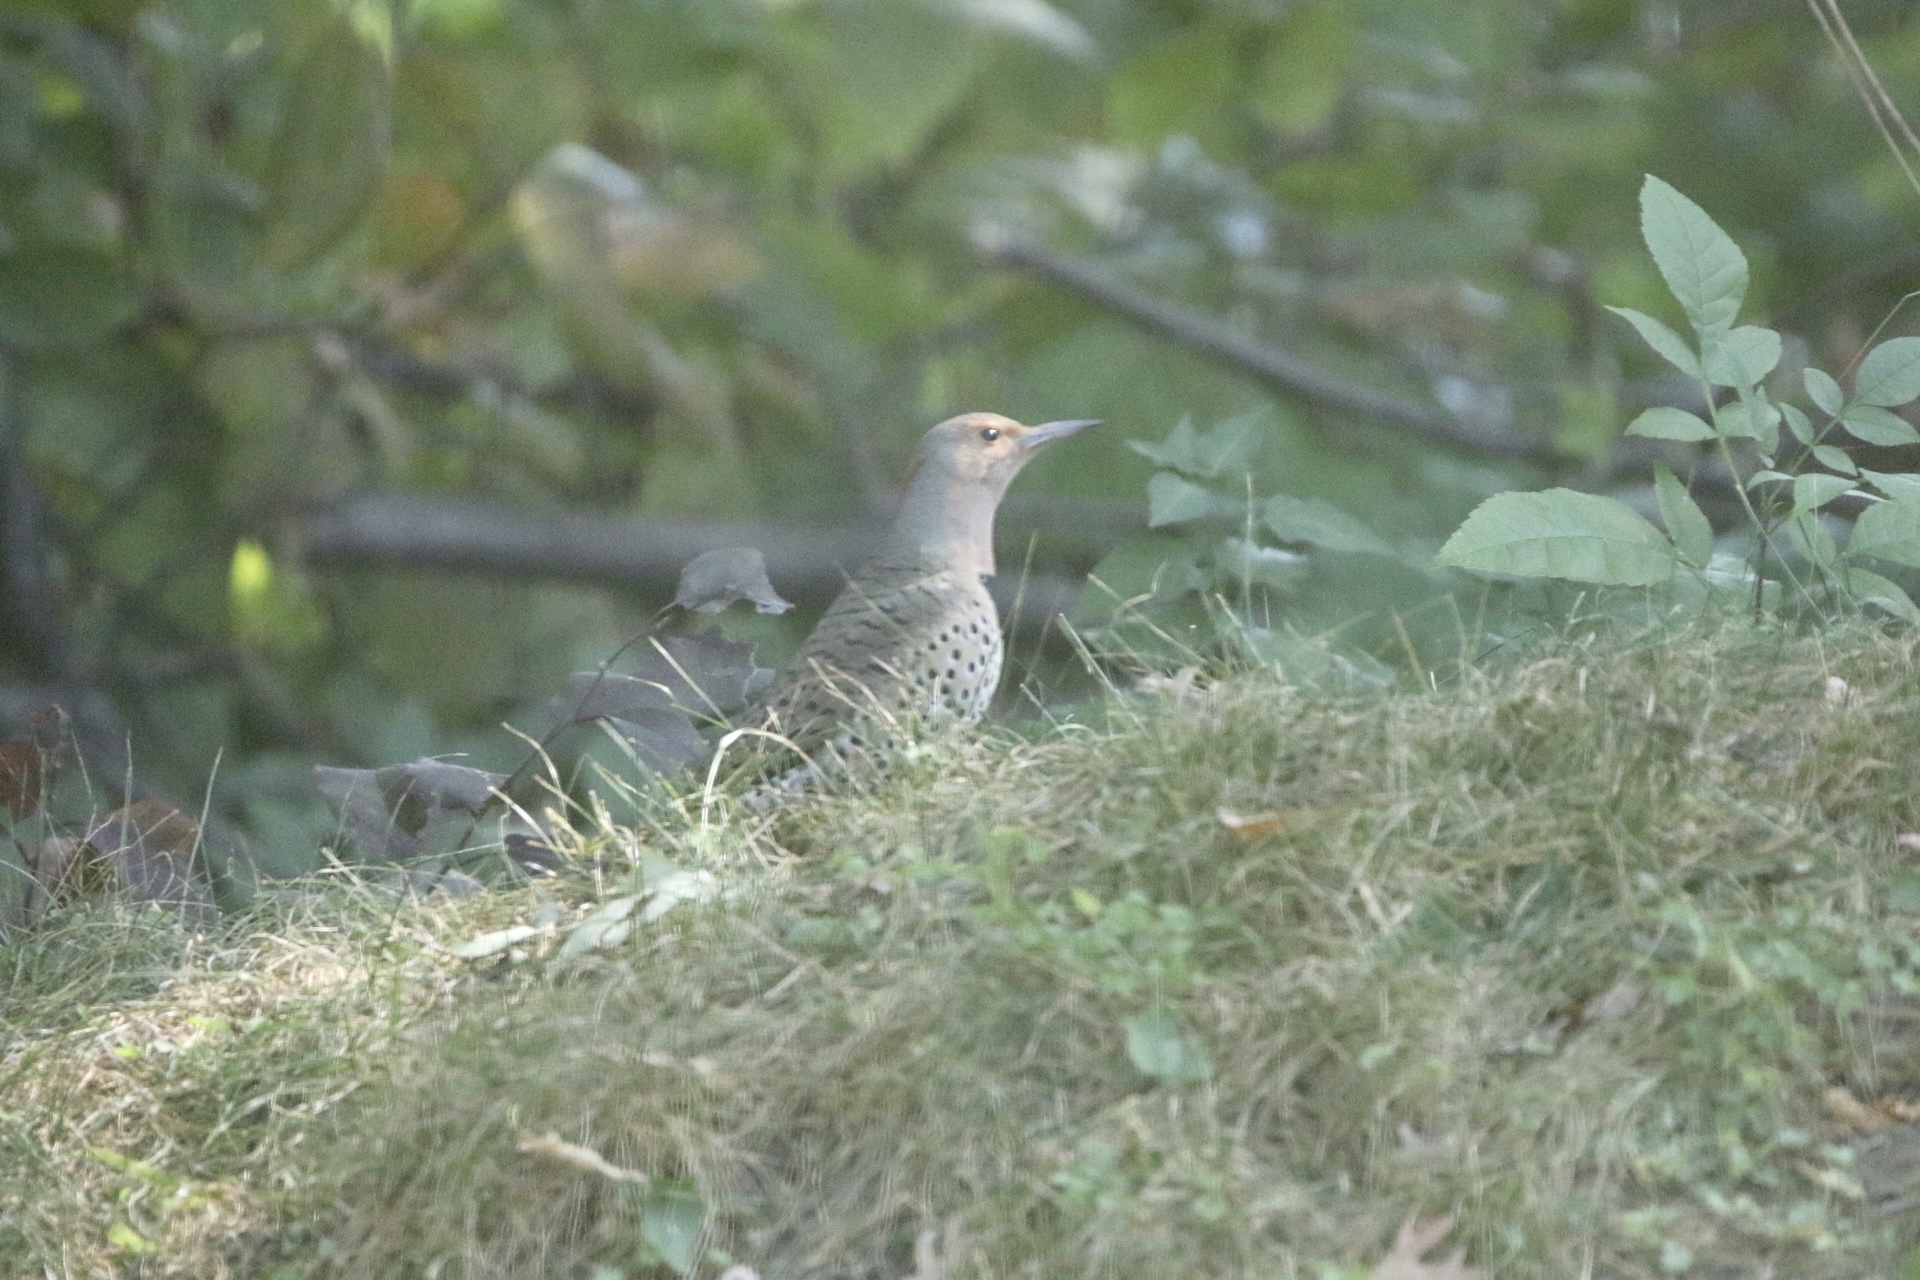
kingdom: Animalia
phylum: Chordata
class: Aves
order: Piciformes
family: Picidae
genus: Colaptes
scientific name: Colaptes auratus
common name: Northern flicker
